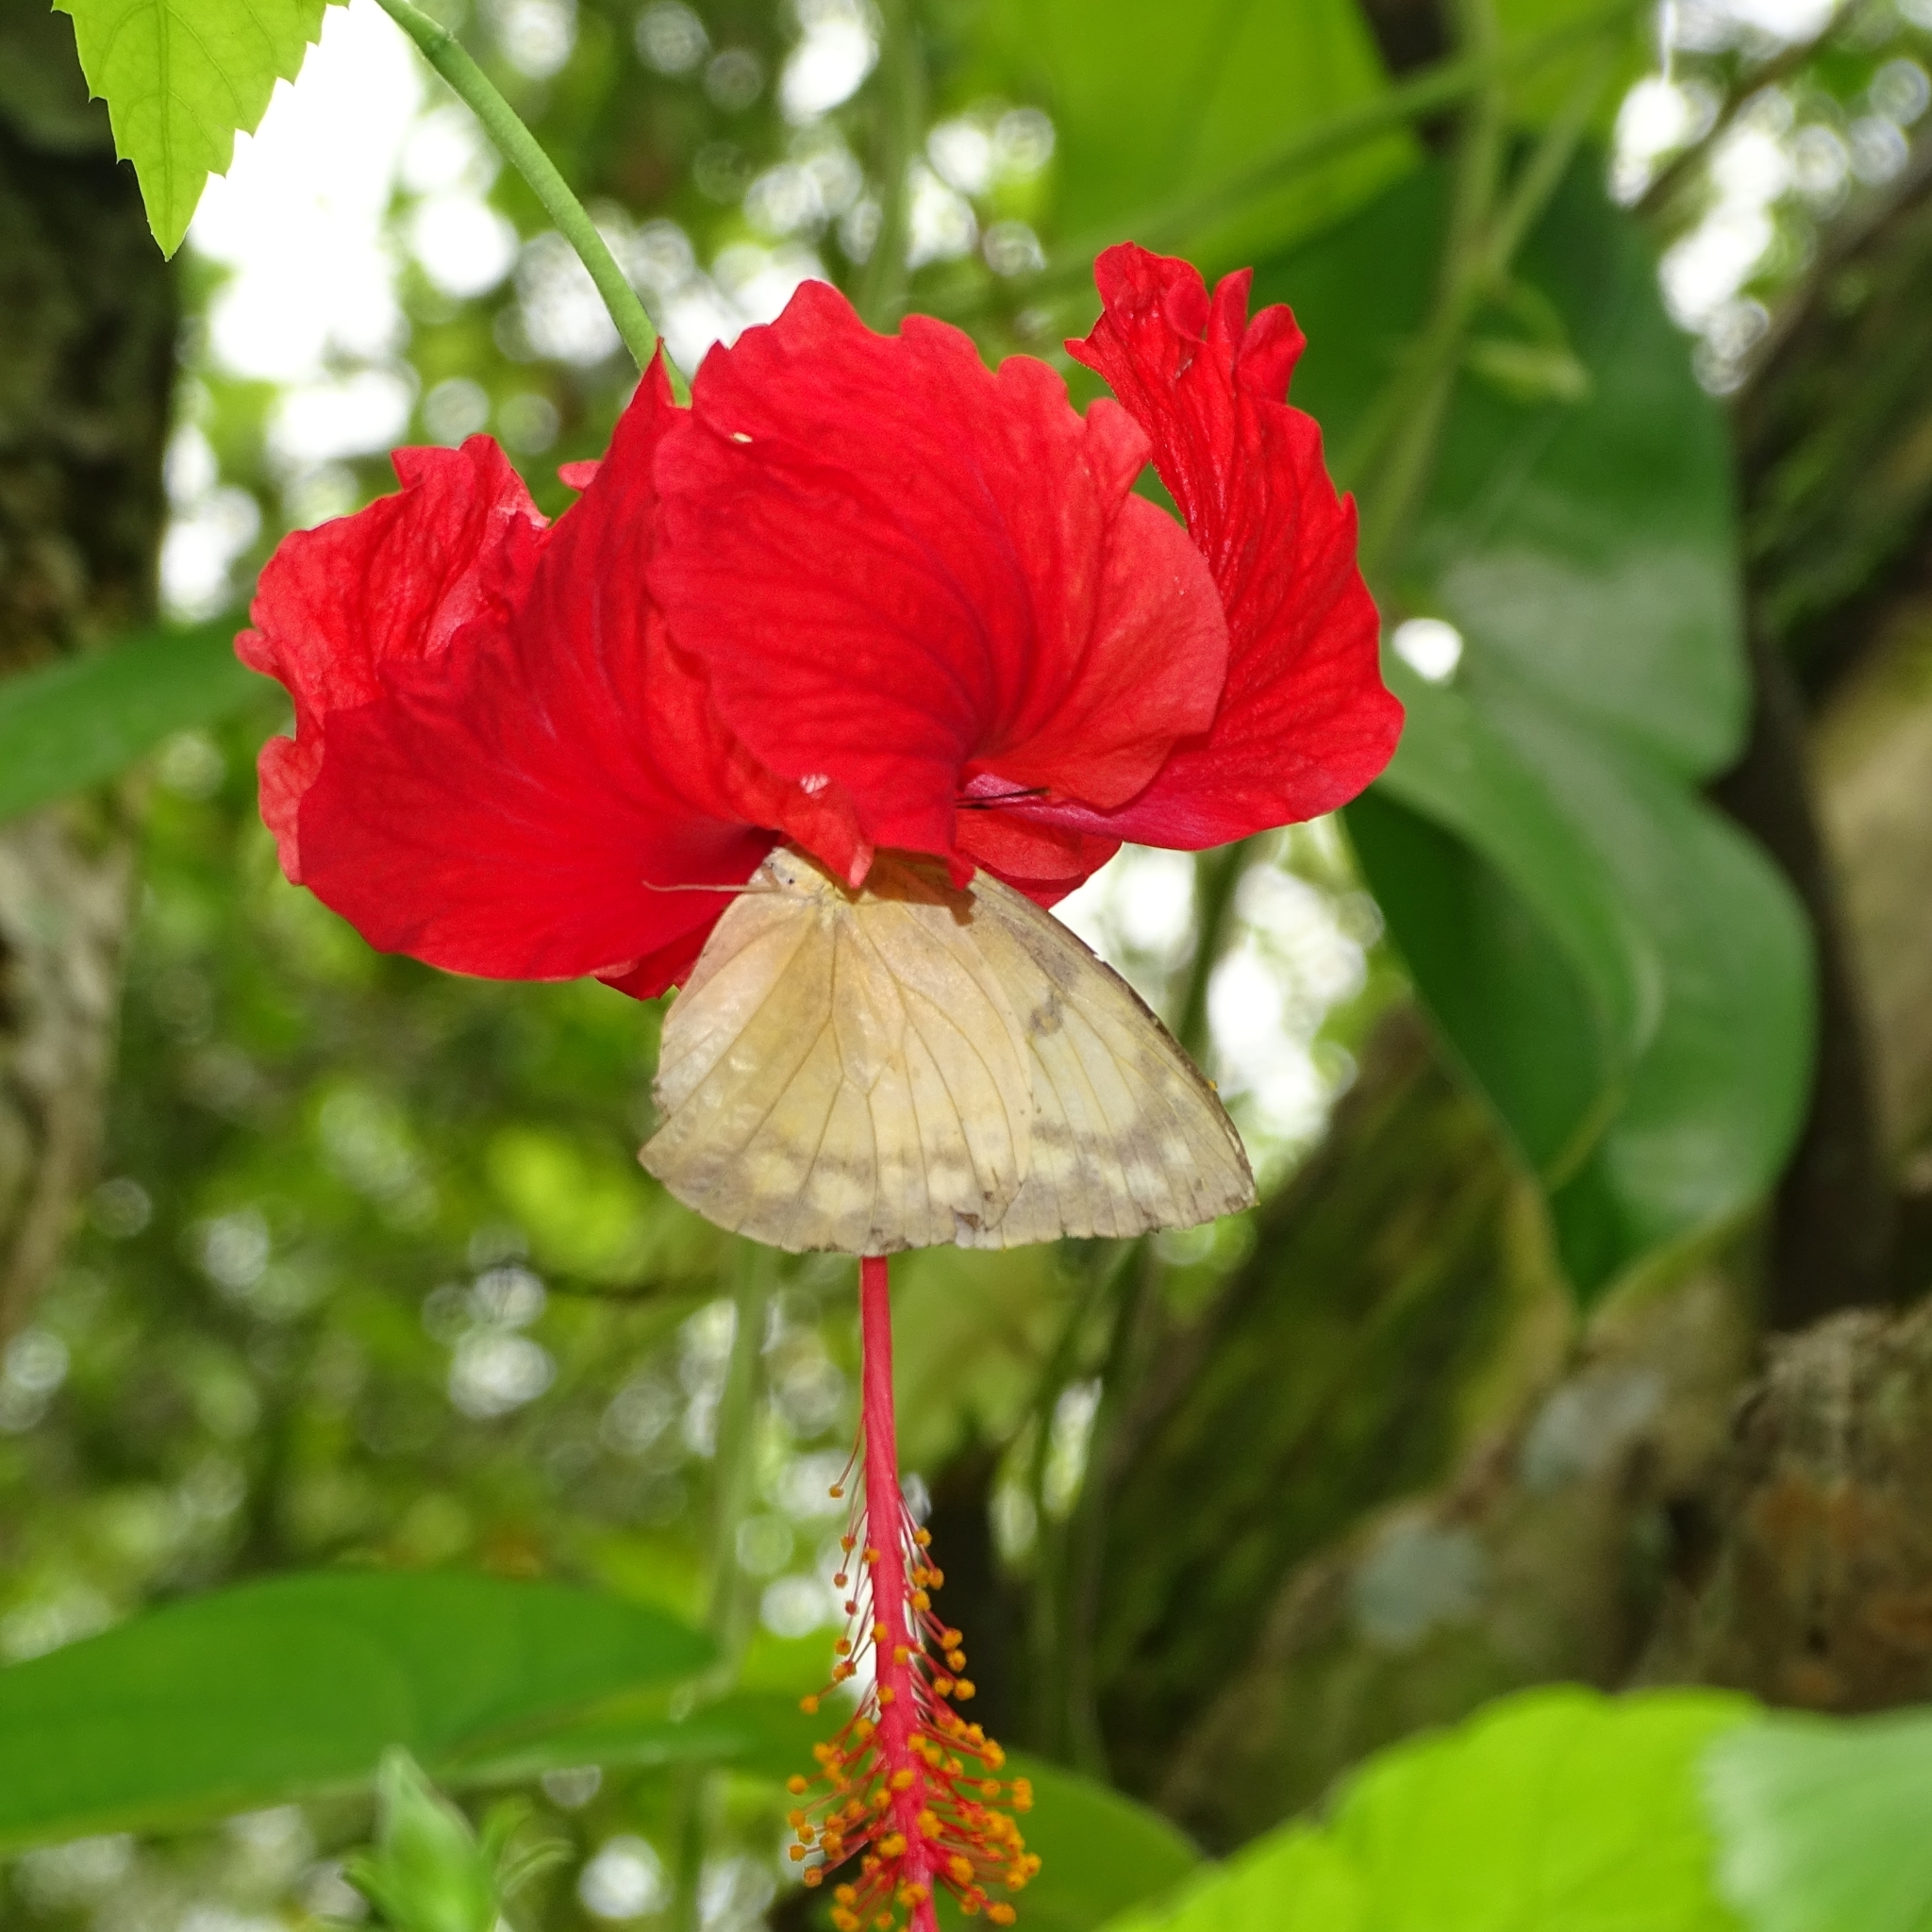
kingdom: Plantae
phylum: Tracheophyta
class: Magnoliopsida
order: Malvales
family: Malvaceae
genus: Hibiscus
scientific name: Hibiscus archeri
